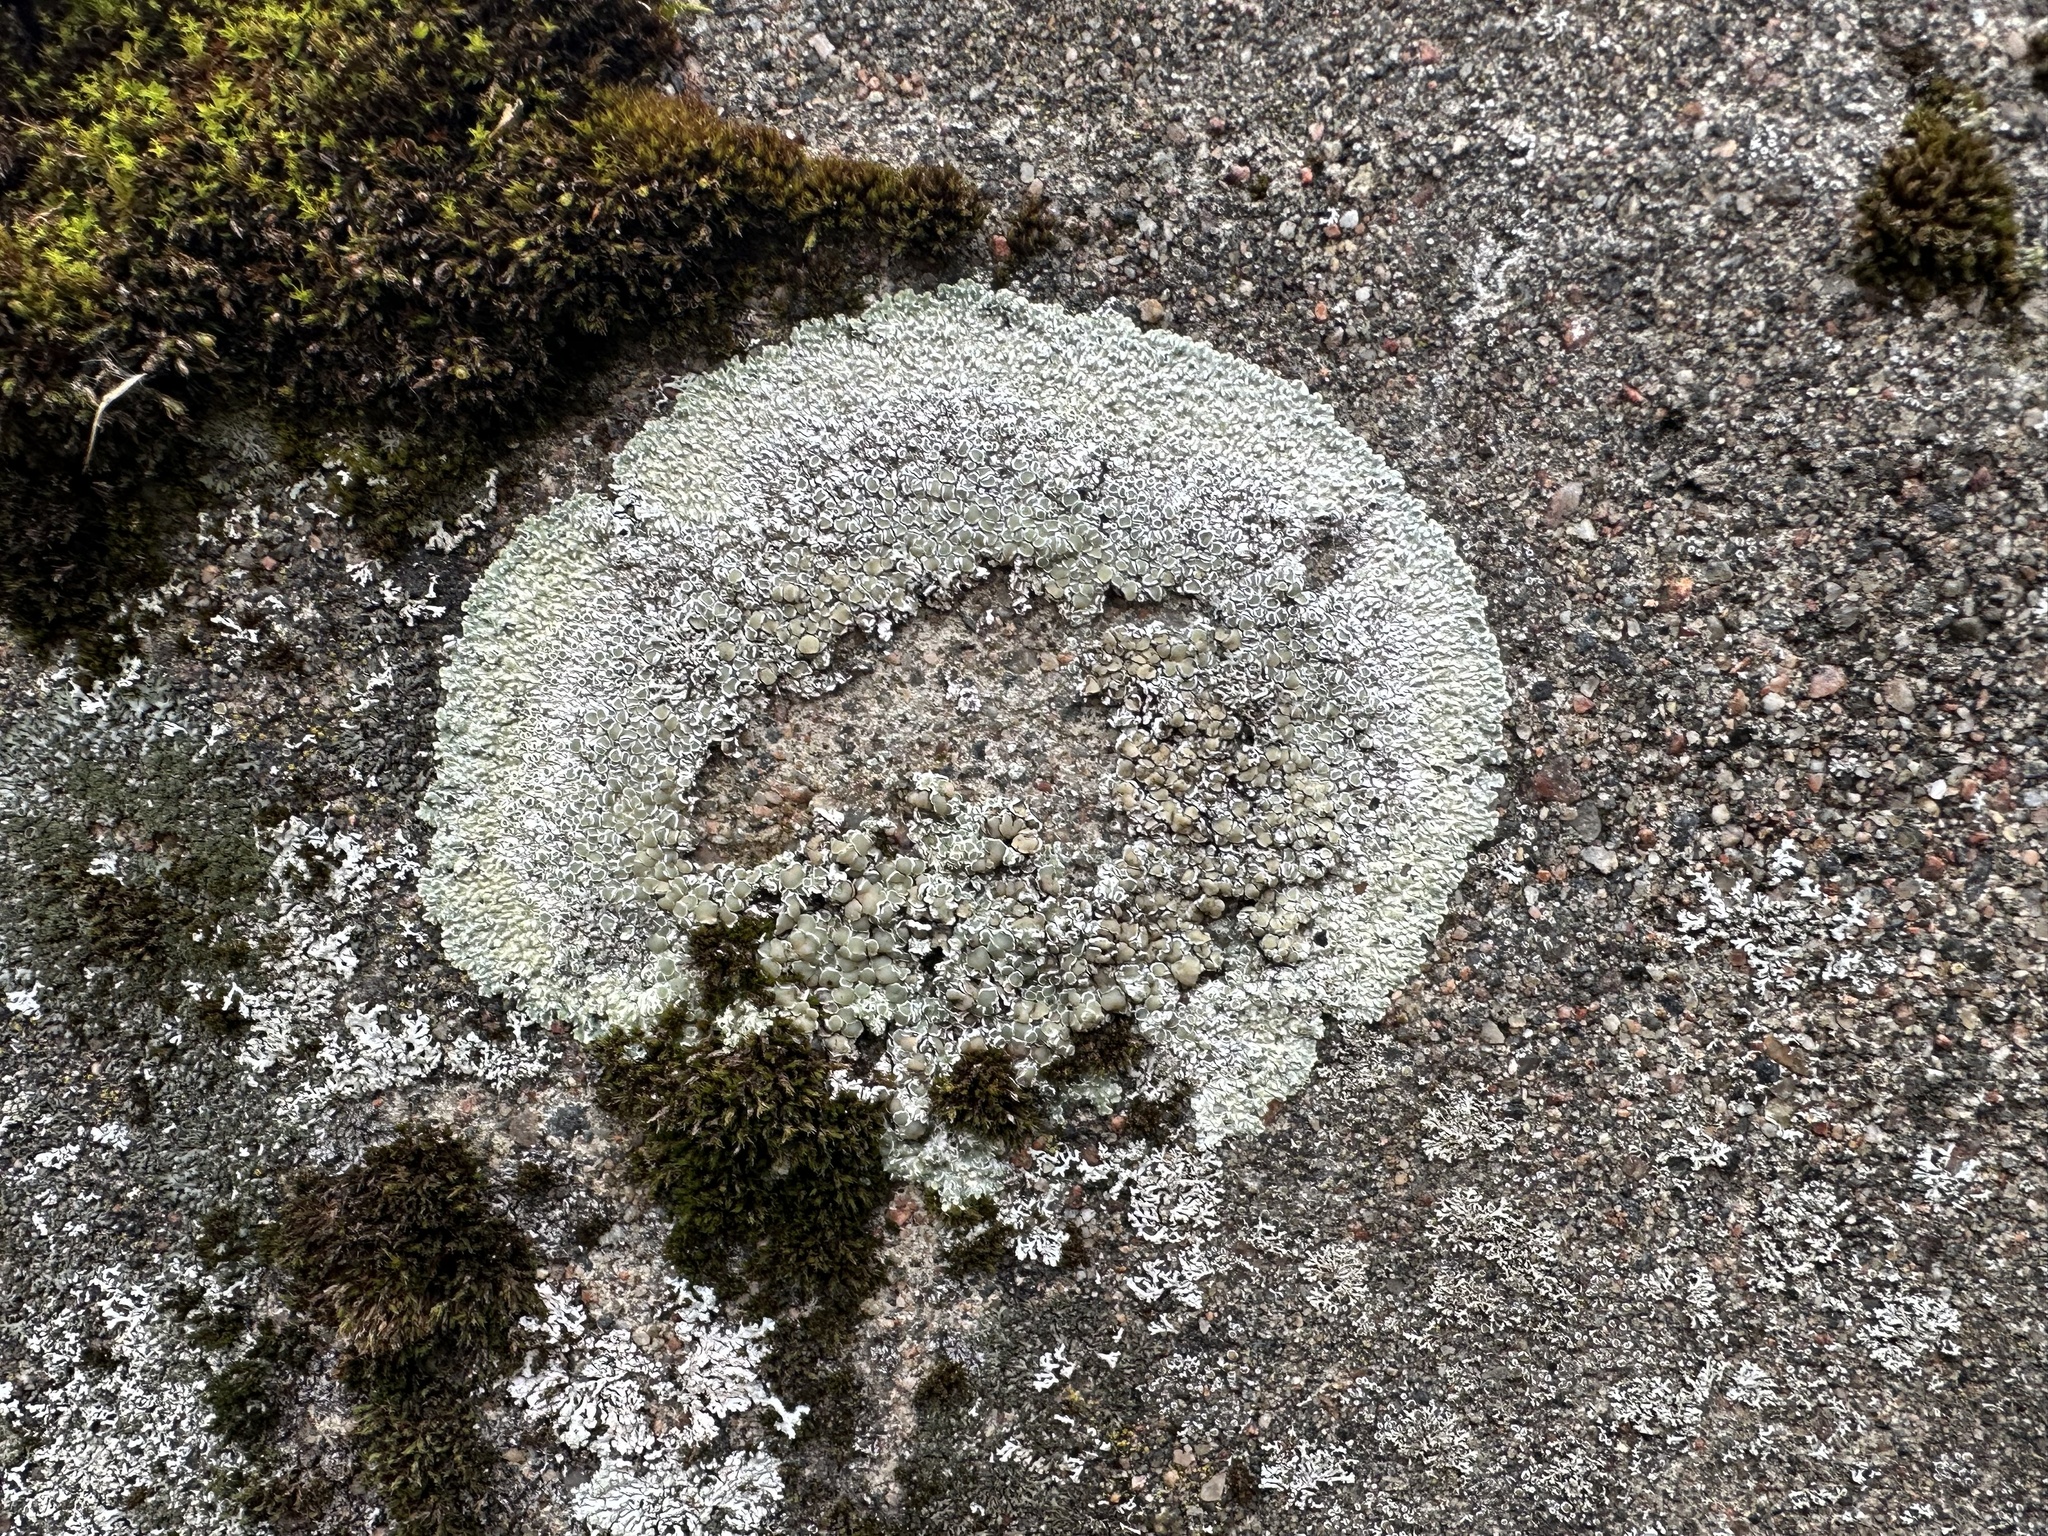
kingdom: Fungi
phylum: Ascomycota
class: Lecanoromycetes
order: Lecanorales
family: Lecanoraceae
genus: Protoparmeliopsis
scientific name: Protoparmeliopsis muralis
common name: Stonewall rim lichen
